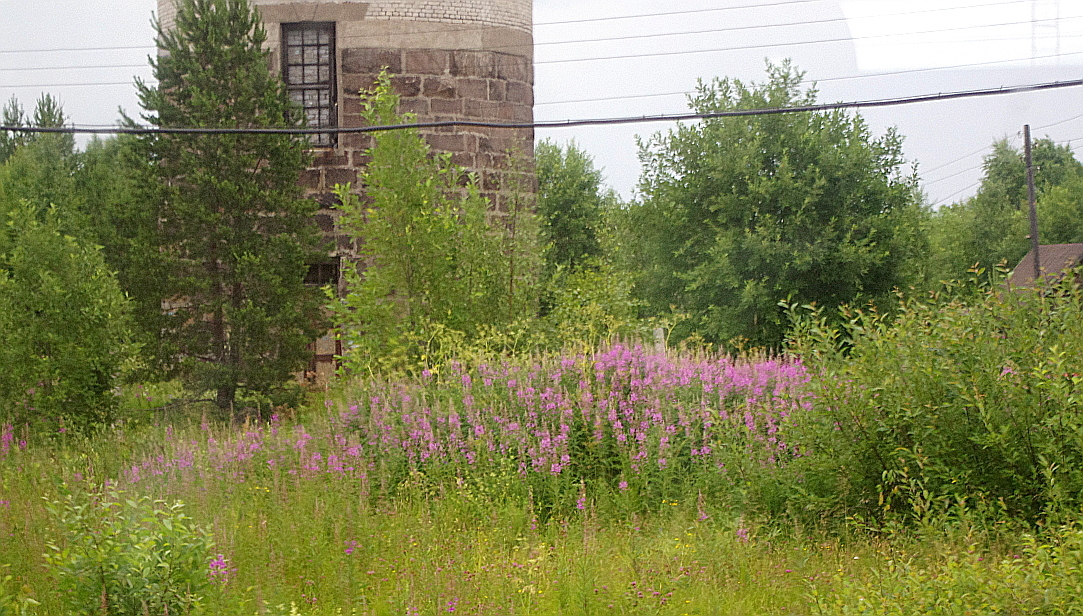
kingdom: Plantae
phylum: Tracheophyta
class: Magnoliopsida
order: Myrtales
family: Onagraceae
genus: Chamaenerion
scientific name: Chamaenerion angustifolium
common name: Fireweed
